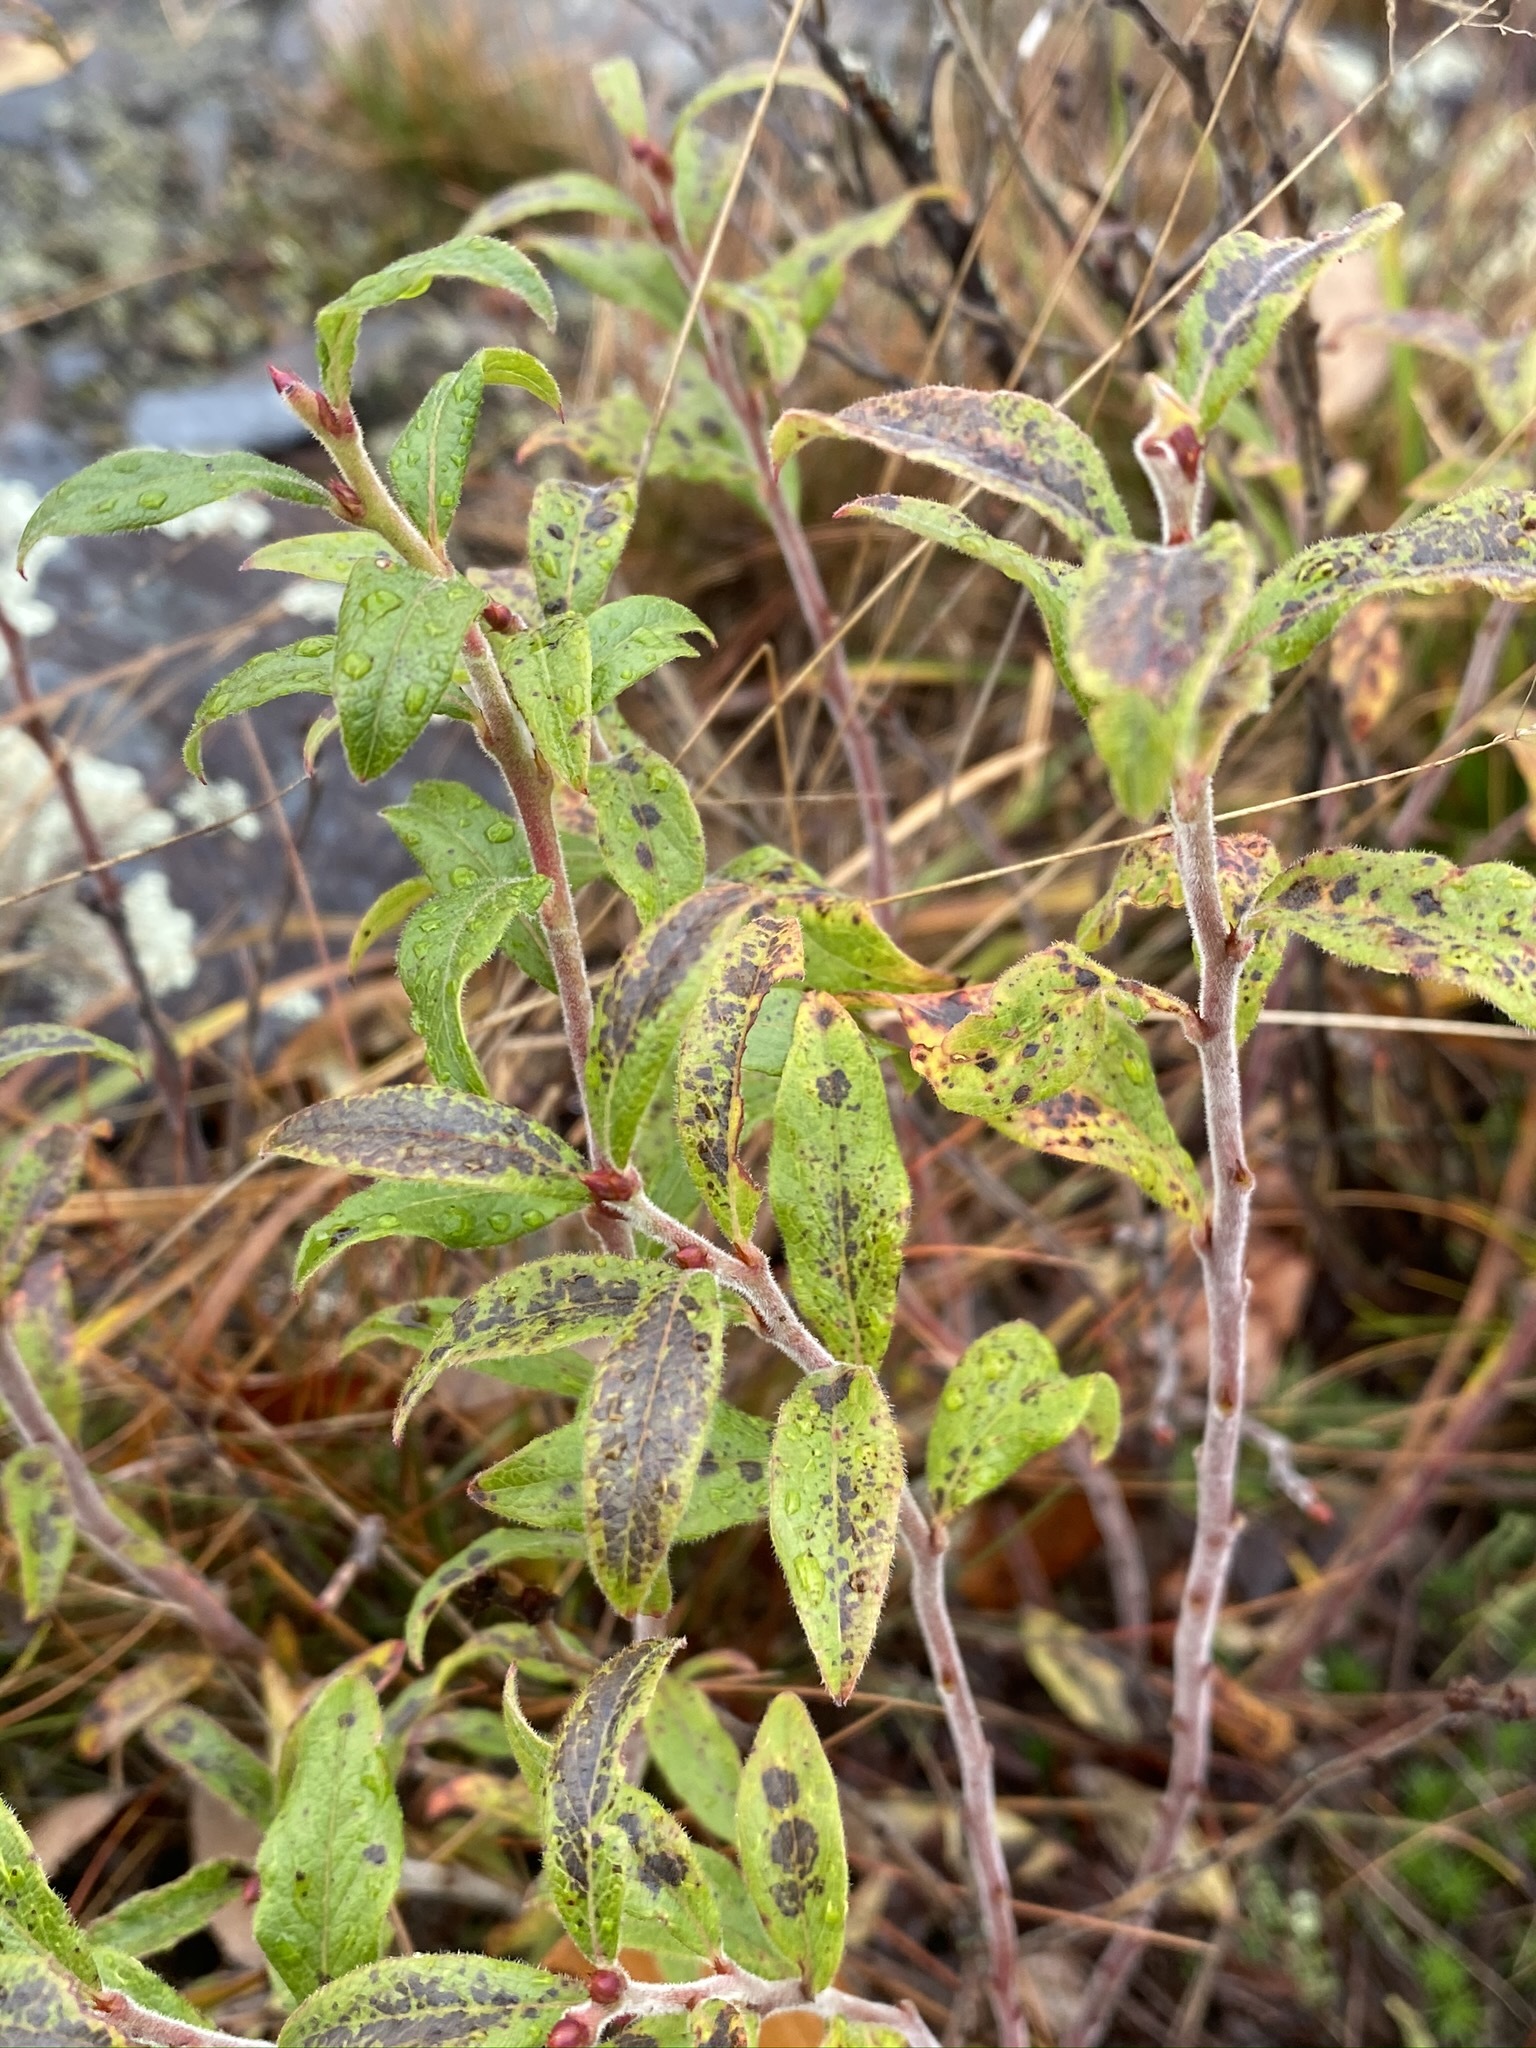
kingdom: Plantae
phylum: Tracheophyta
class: Magnoliopsida
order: Ericales
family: Ericaceae
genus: Vaccinium
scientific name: Vaccinium myrtilloides
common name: Canada blueberry
